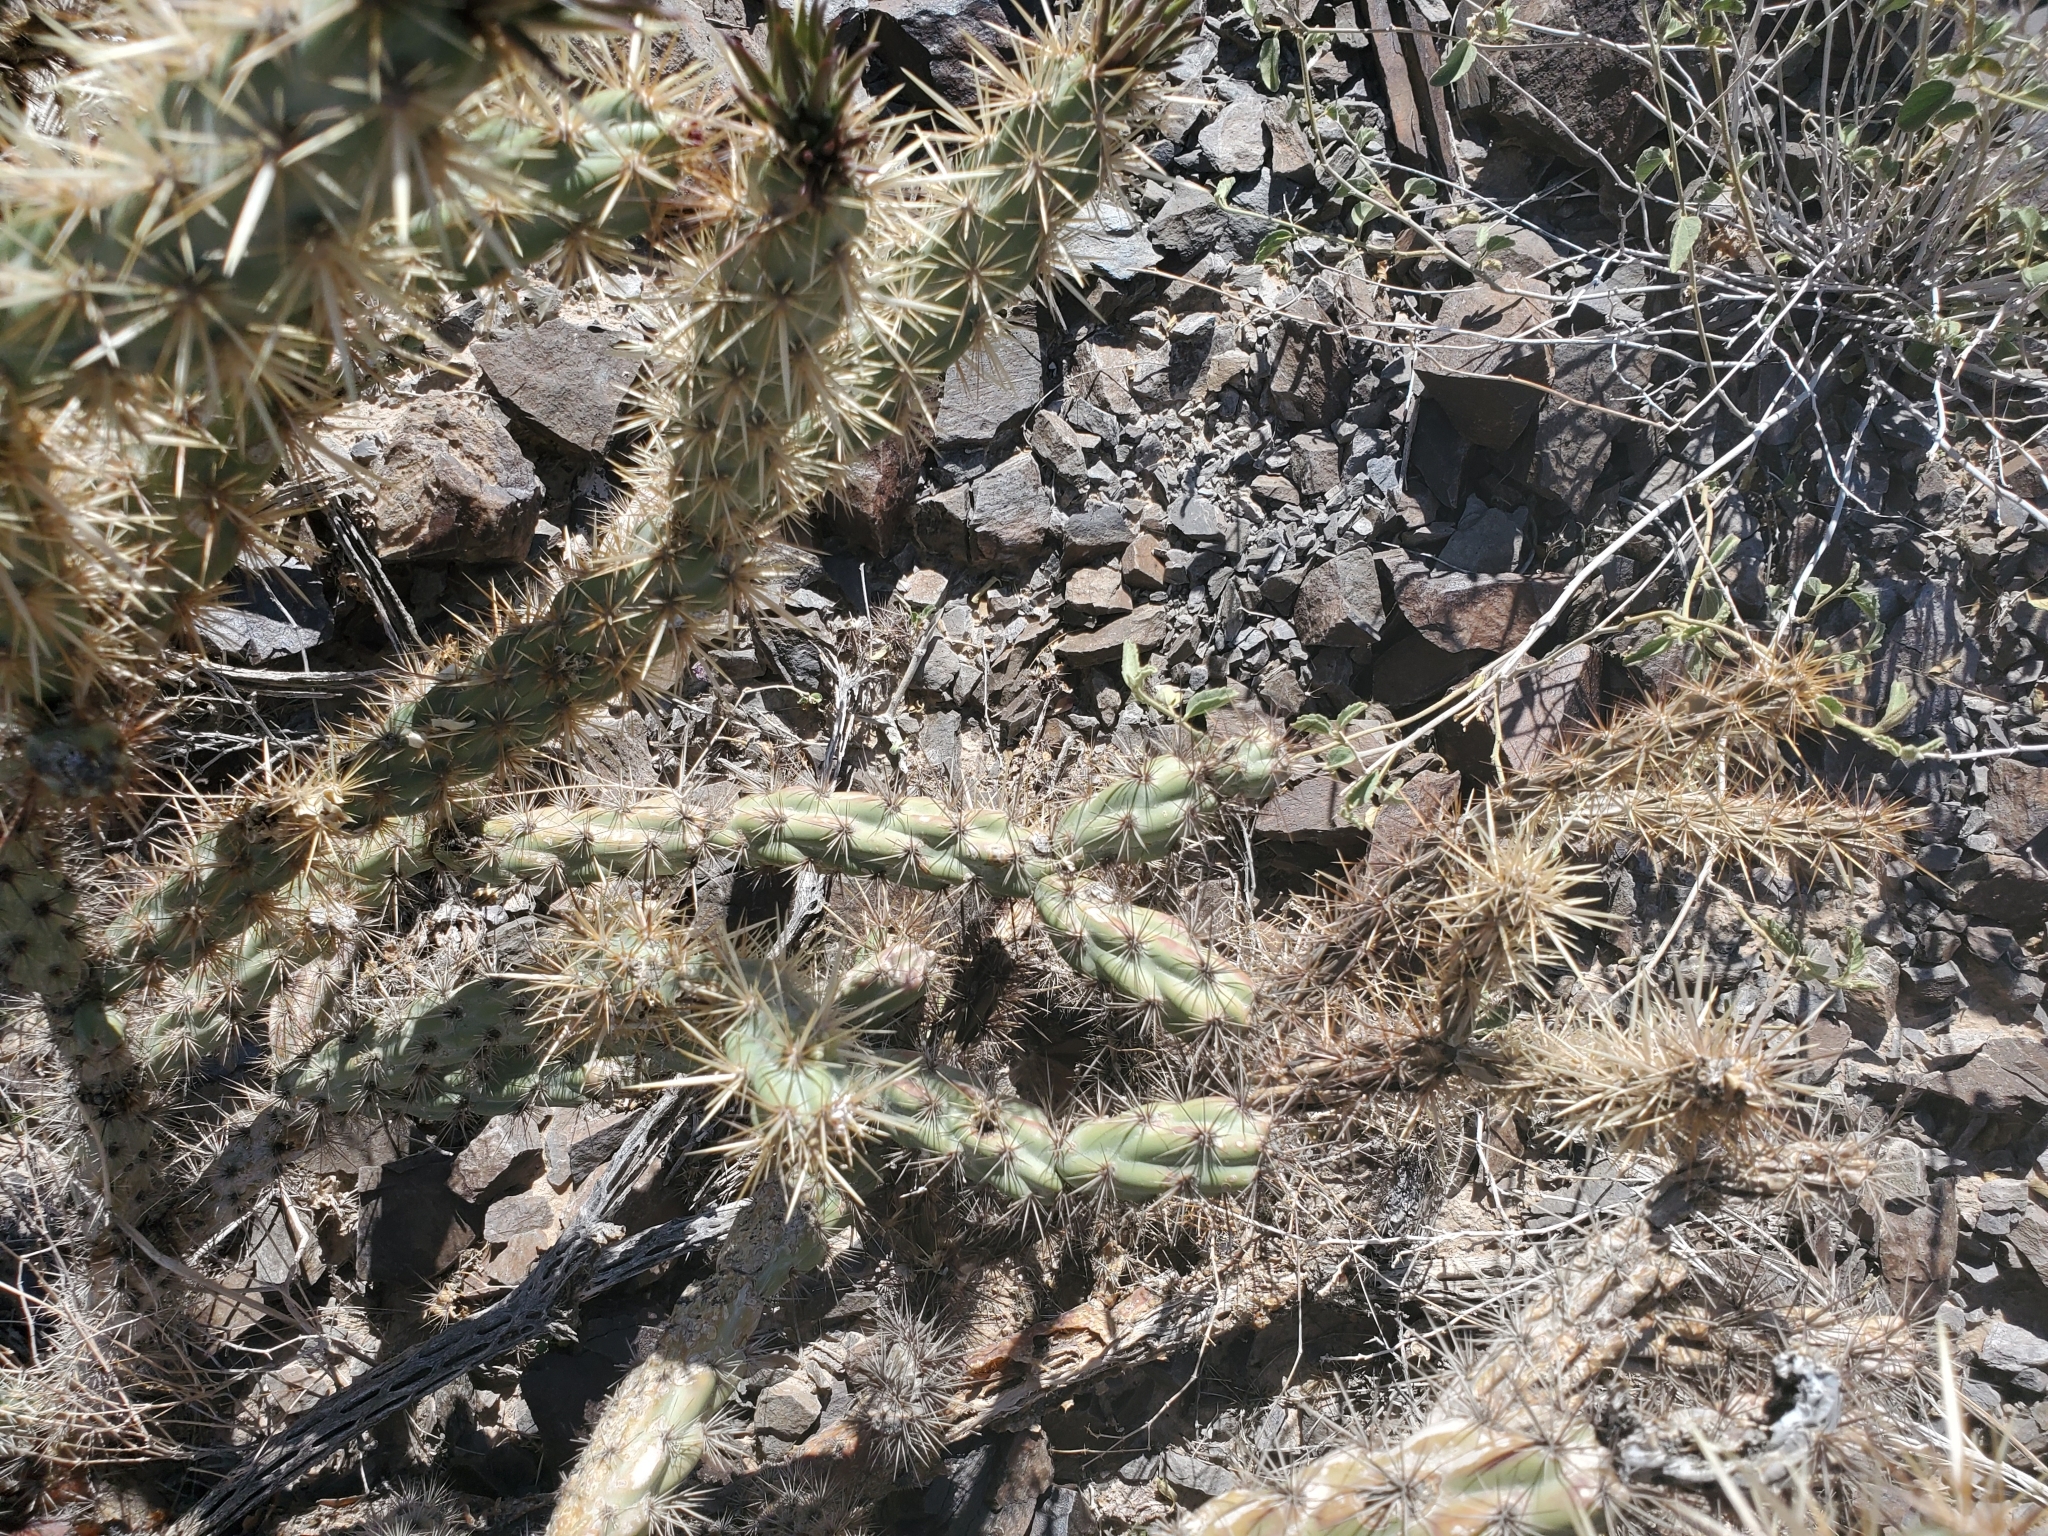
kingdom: Plantae
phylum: Tracheophyta
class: Magnoliopsida
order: Caryophyllales
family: Cactaceae
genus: Cylindropuntia
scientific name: Cylindropuntia acanthocarpa
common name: Buckhorn cholla
